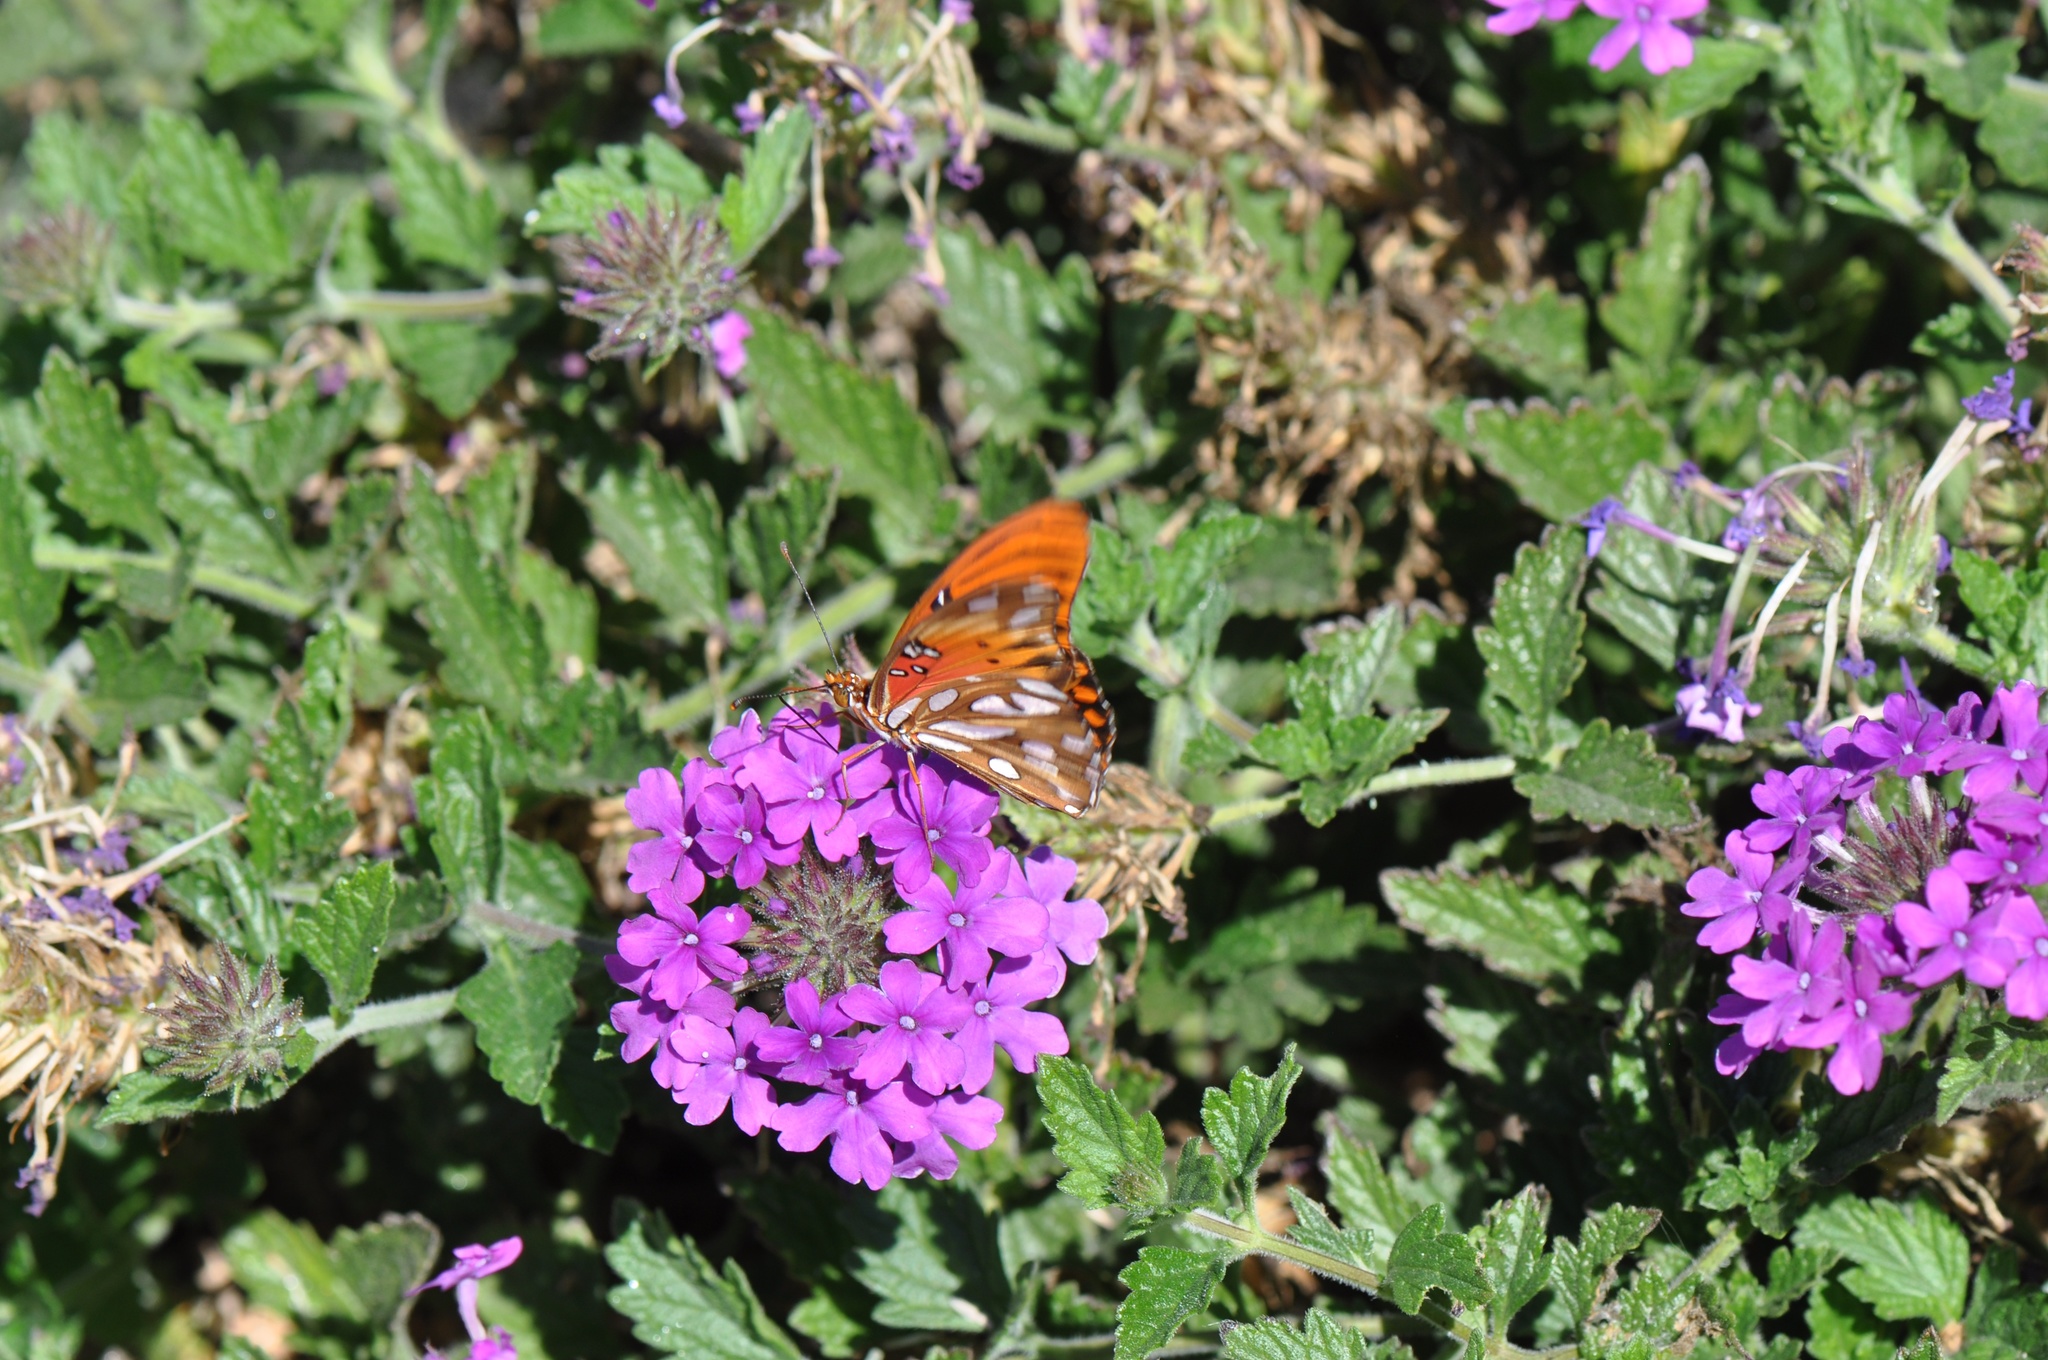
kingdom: Animalia
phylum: Arthropoda
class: Insecta
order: Lepidoptera
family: Nymphalidae
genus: Dione
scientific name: Dione vanillae
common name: Gulf fritillary
